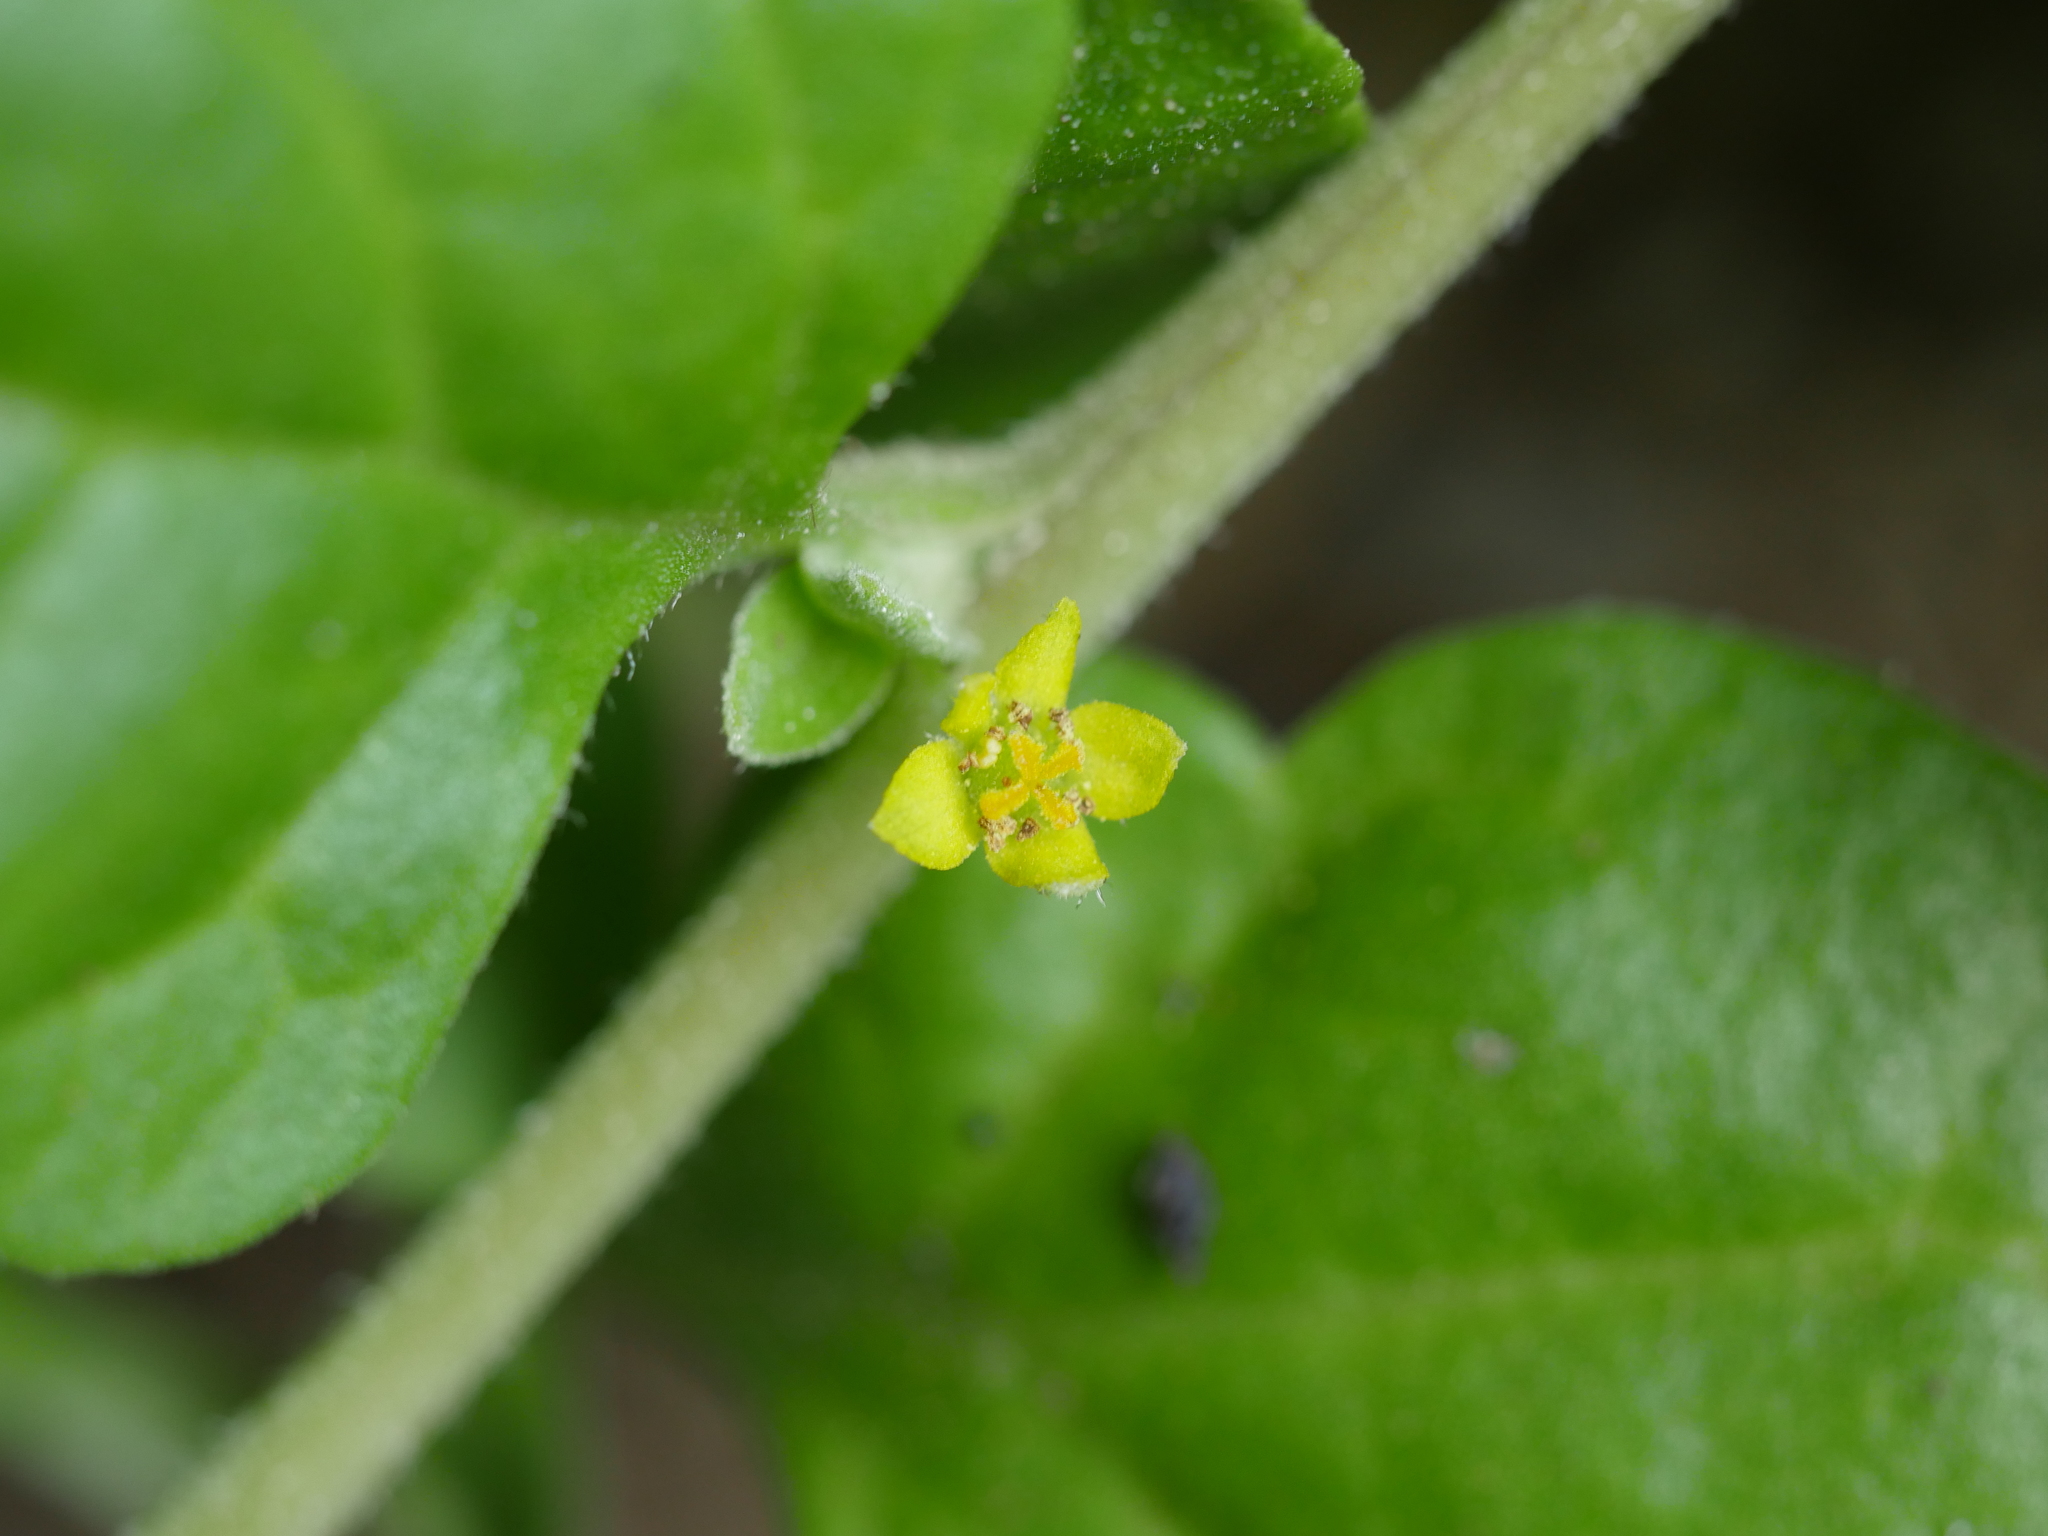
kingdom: Plantae
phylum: Tracheophyta
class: Magnoliopsida
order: Caryophyllales
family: Aizoaceae
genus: Tetragonia
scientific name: Tetragonia implexicoma
